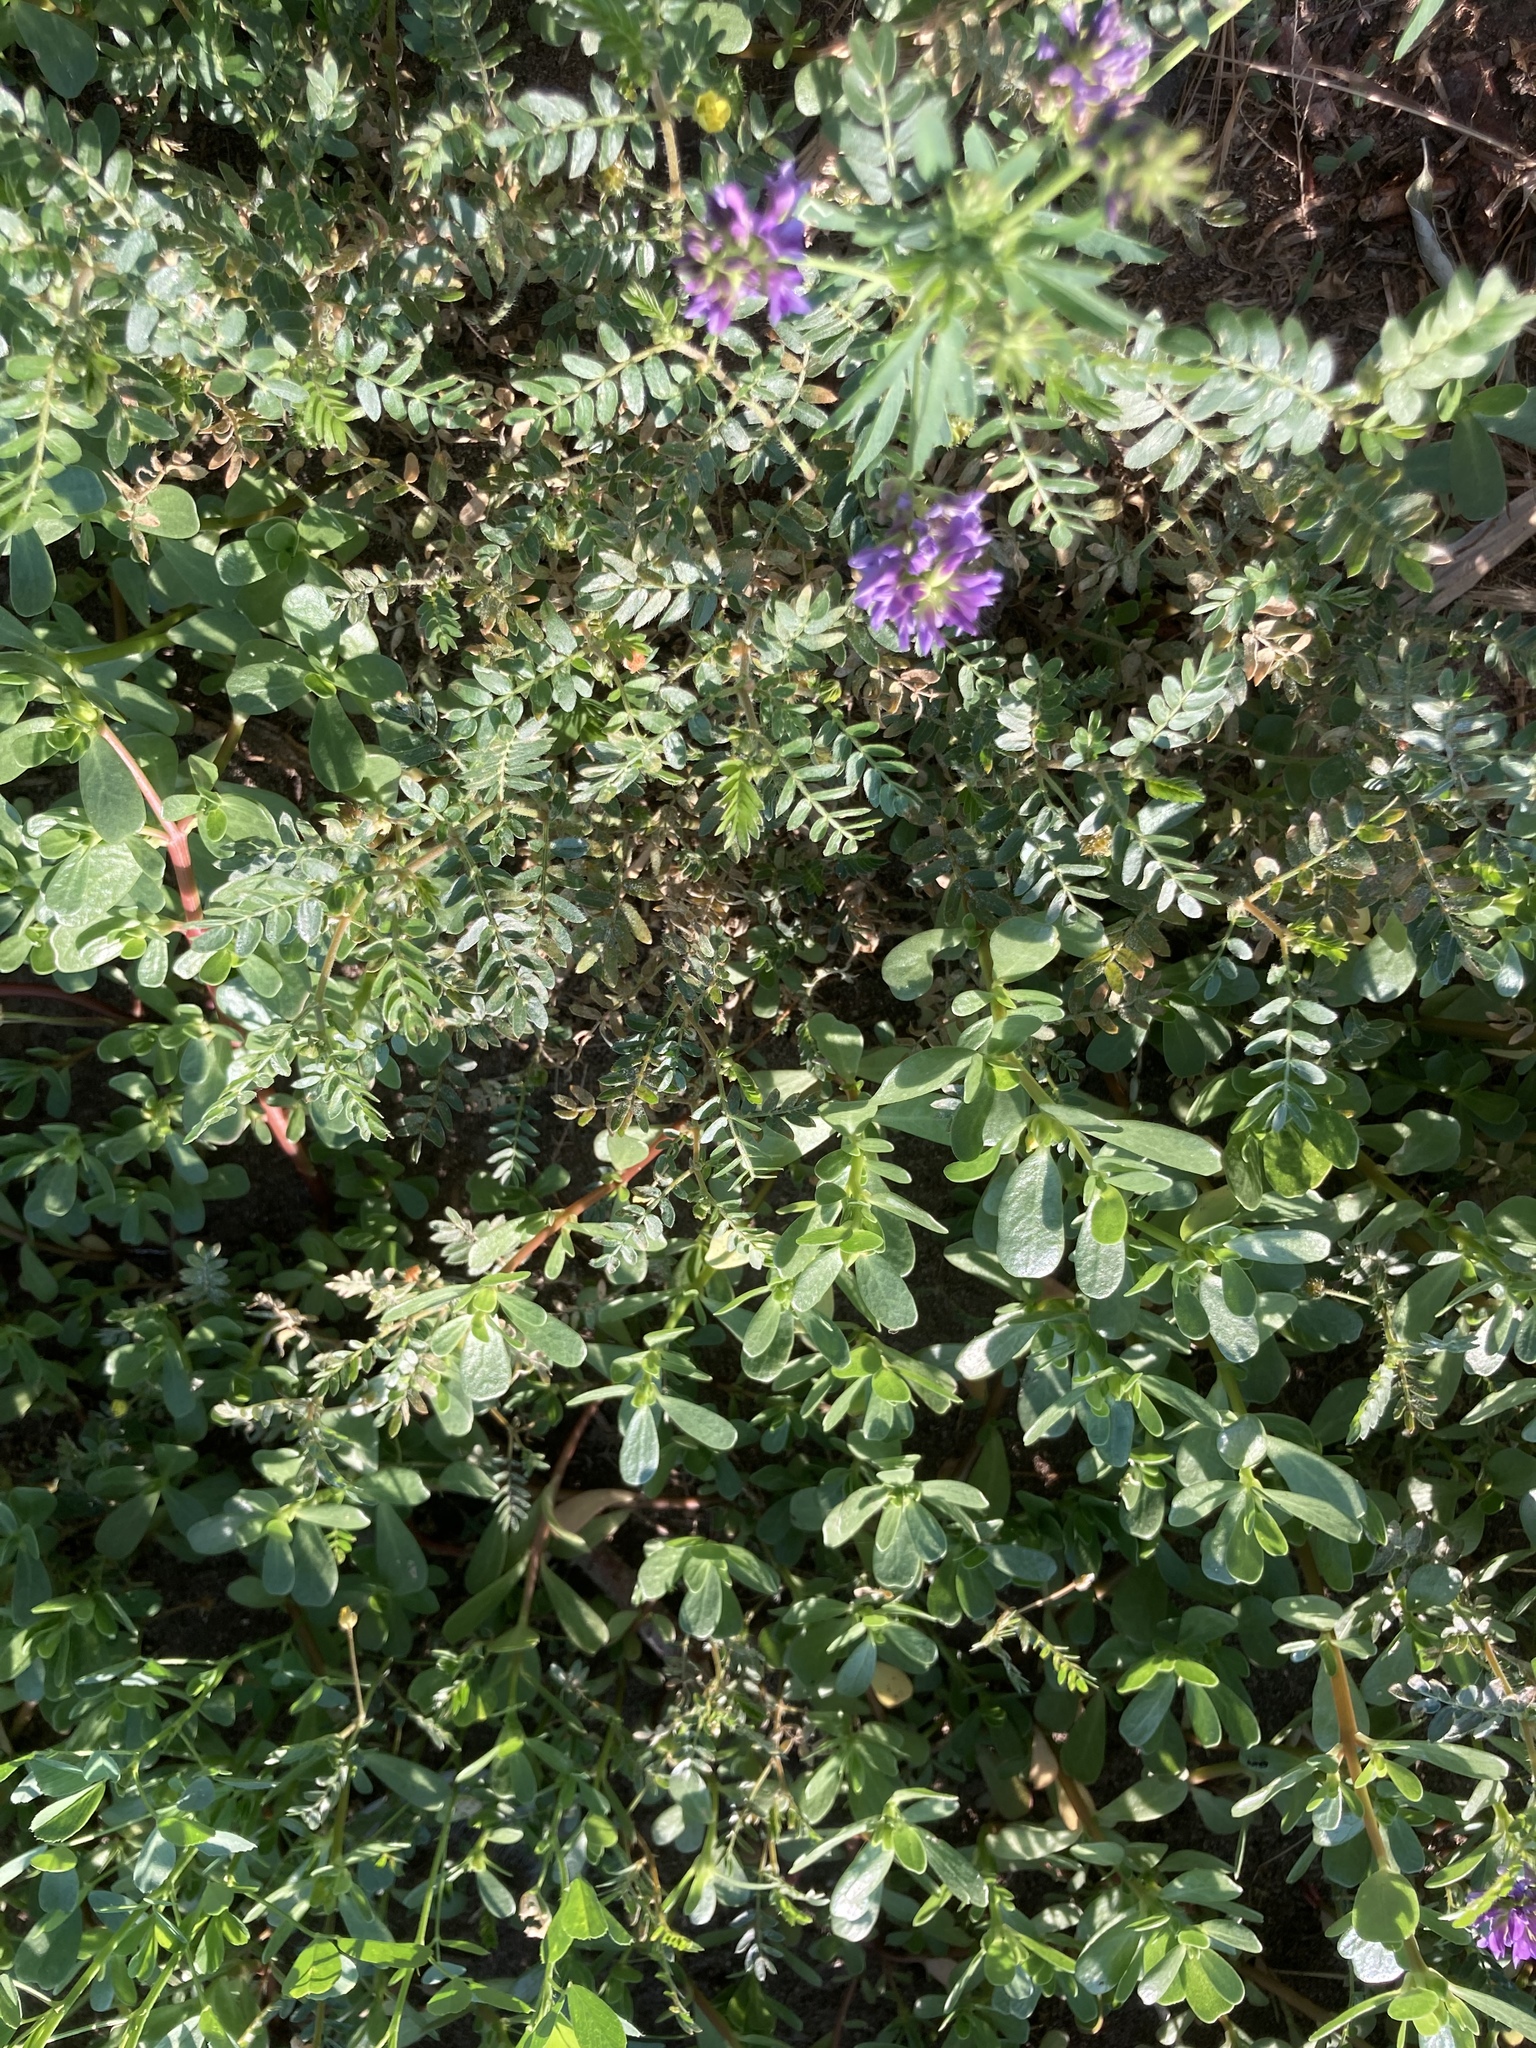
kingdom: Plantae
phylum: Tracheophyta
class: Magnoliopsida
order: Fabales
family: Fabaceae
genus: Medicago
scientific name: Medicago sativa
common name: Alfalfa
